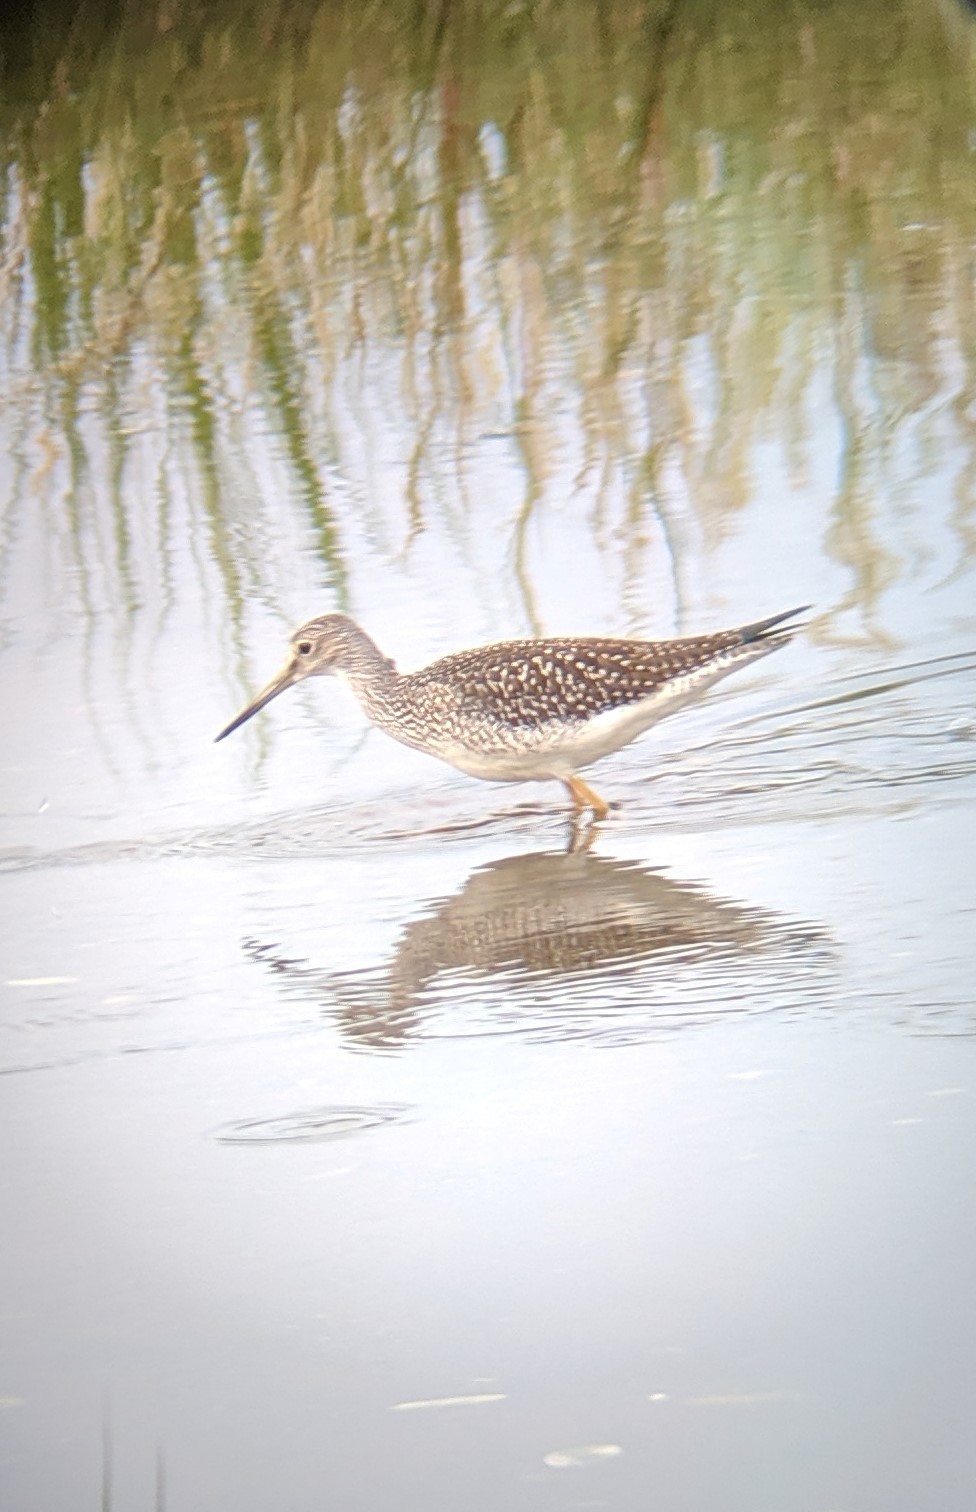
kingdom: Animalia
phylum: Chordata
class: Aves
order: Charadriiformes
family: Scolopacidae
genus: Tringa
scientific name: Tringa melanoleuca
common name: Greater yellowlegs
